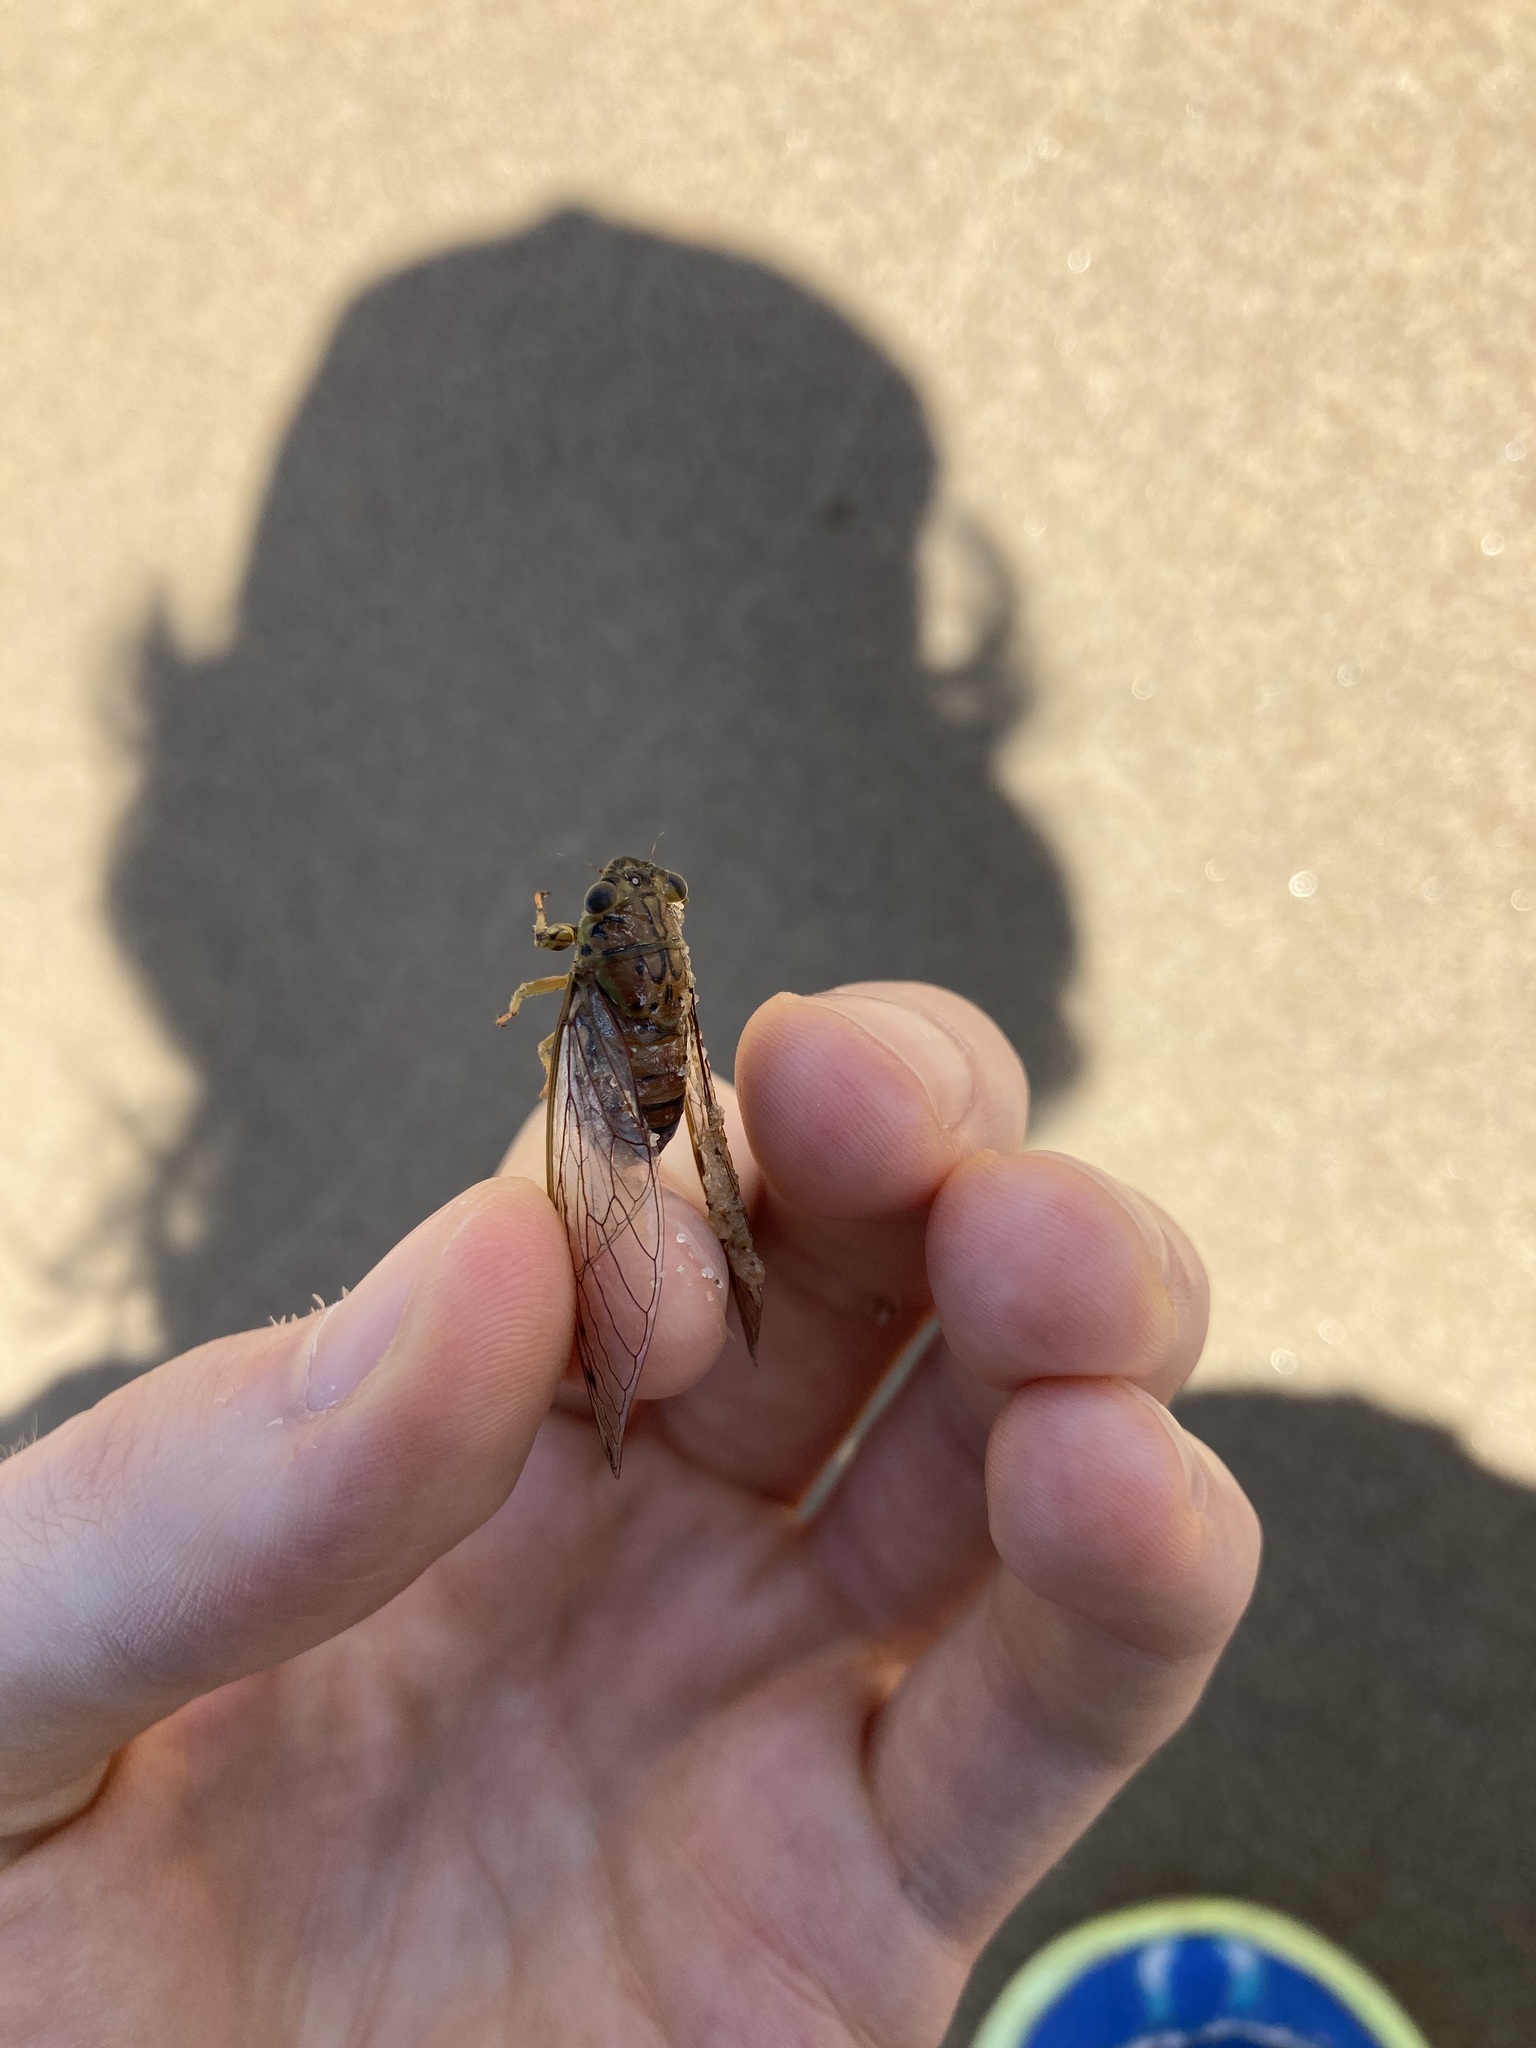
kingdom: Animalia
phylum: Arthropoda
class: Insecta
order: Hemiptera
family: Cicadidae
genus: Tamasa
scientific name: Tamasa tristigma
